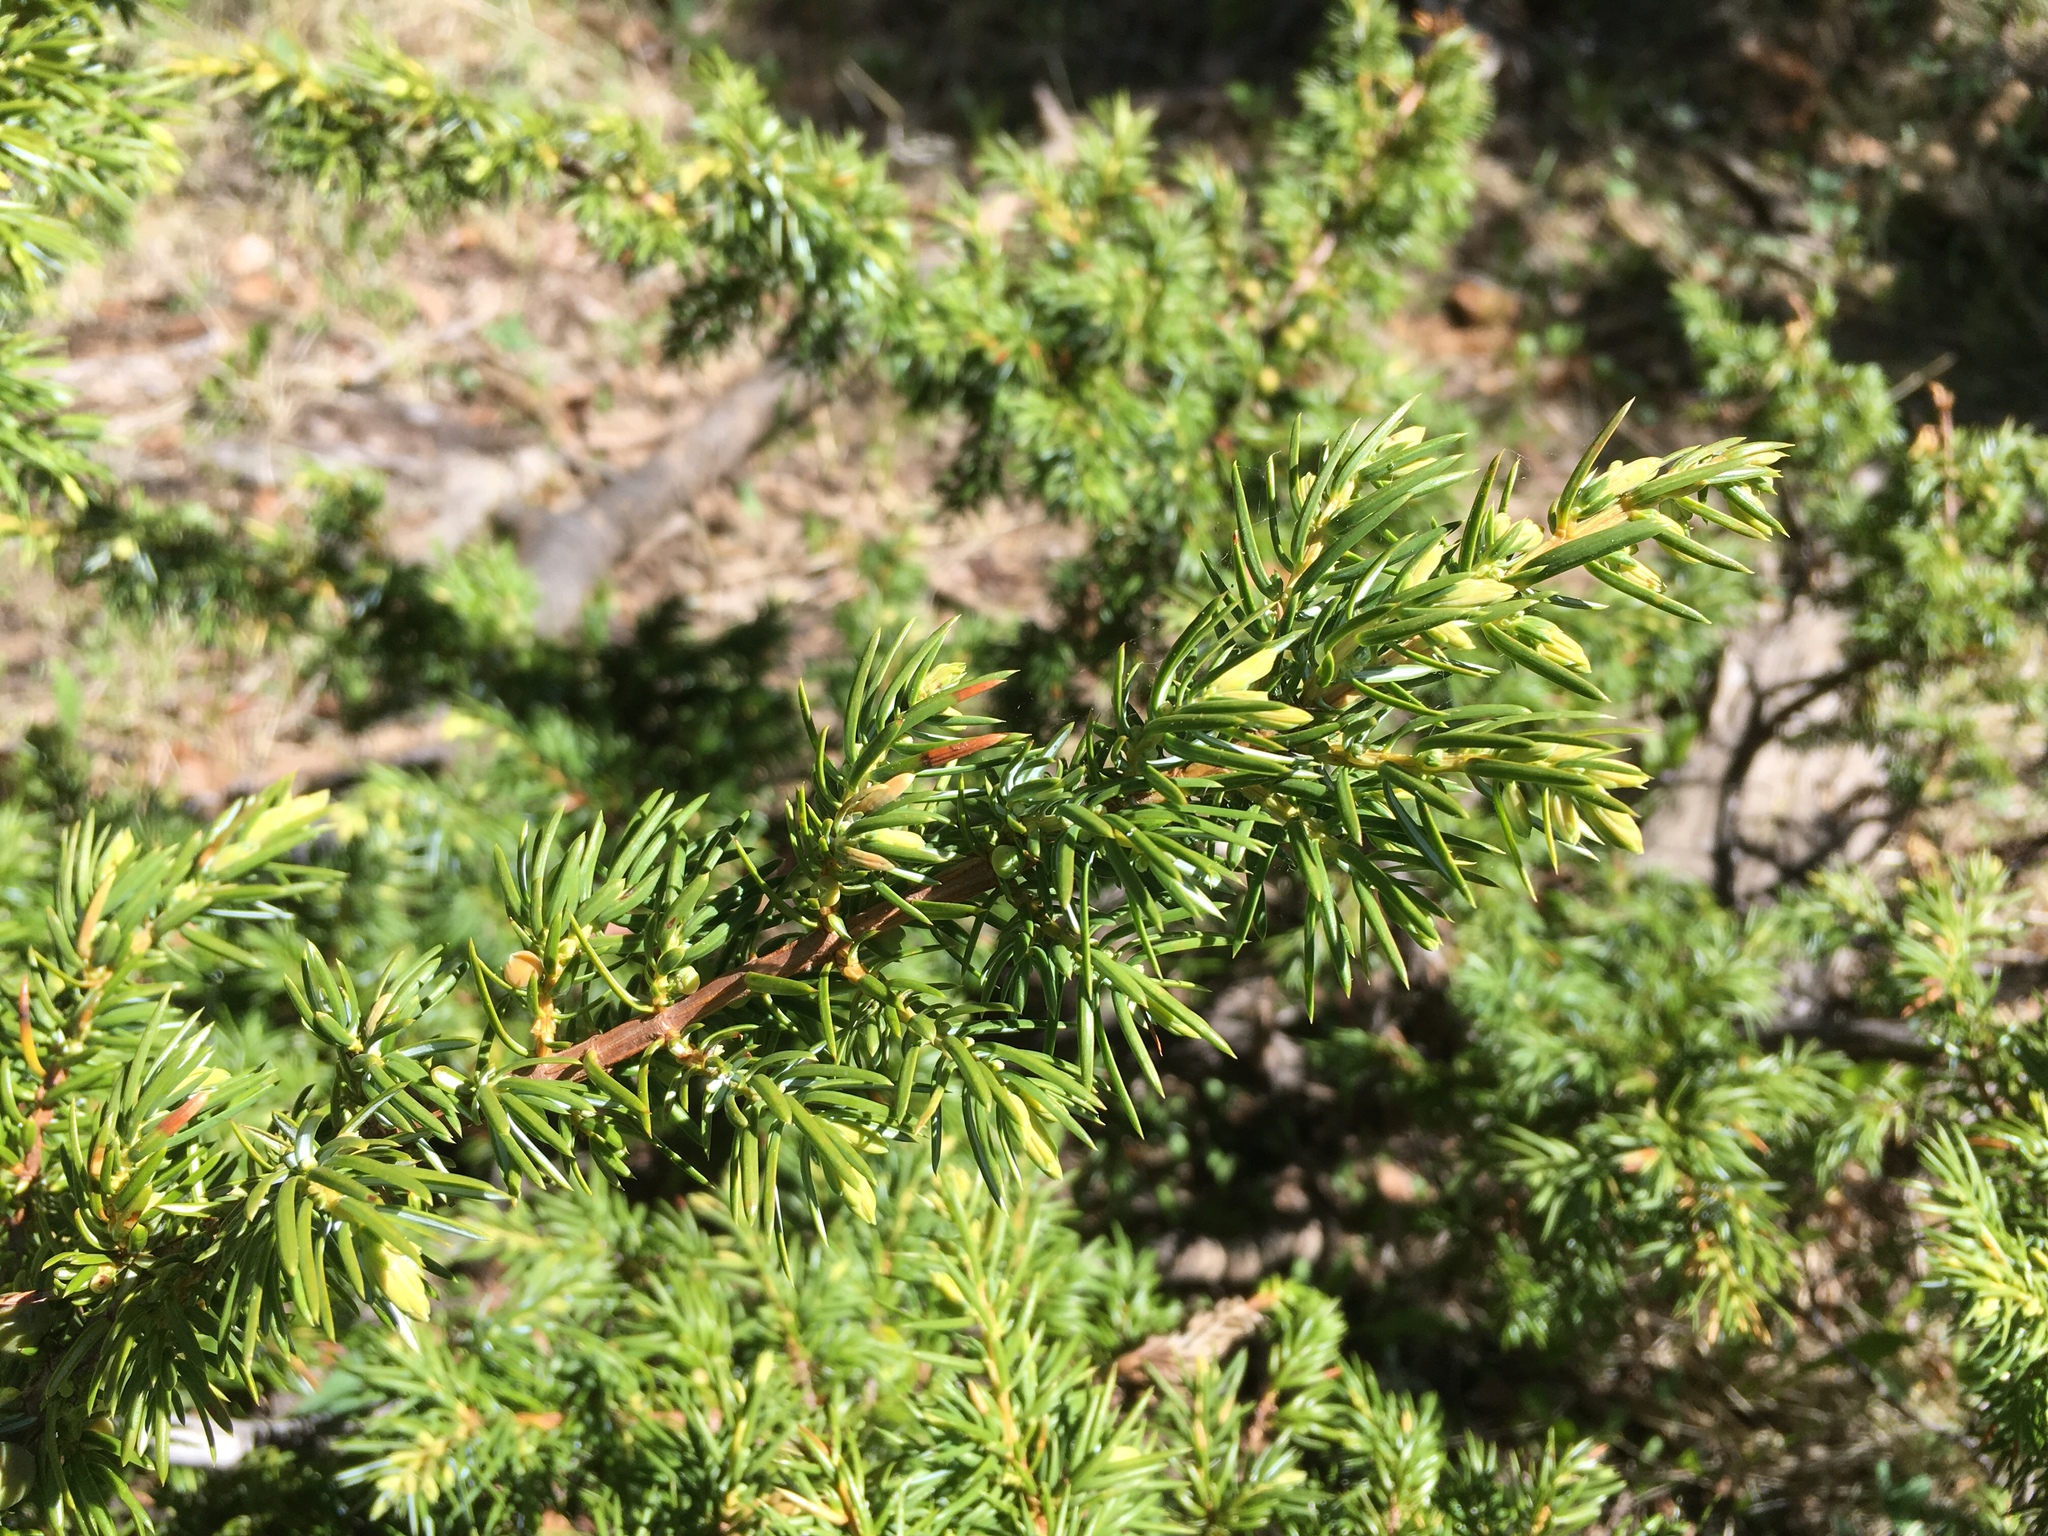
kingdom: Plantae
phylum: Tracheophyta
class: Pinopsida
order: Pinales
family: Cupressaceae
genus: Juniperus
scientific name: Juniperus communis
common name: Common juniper
